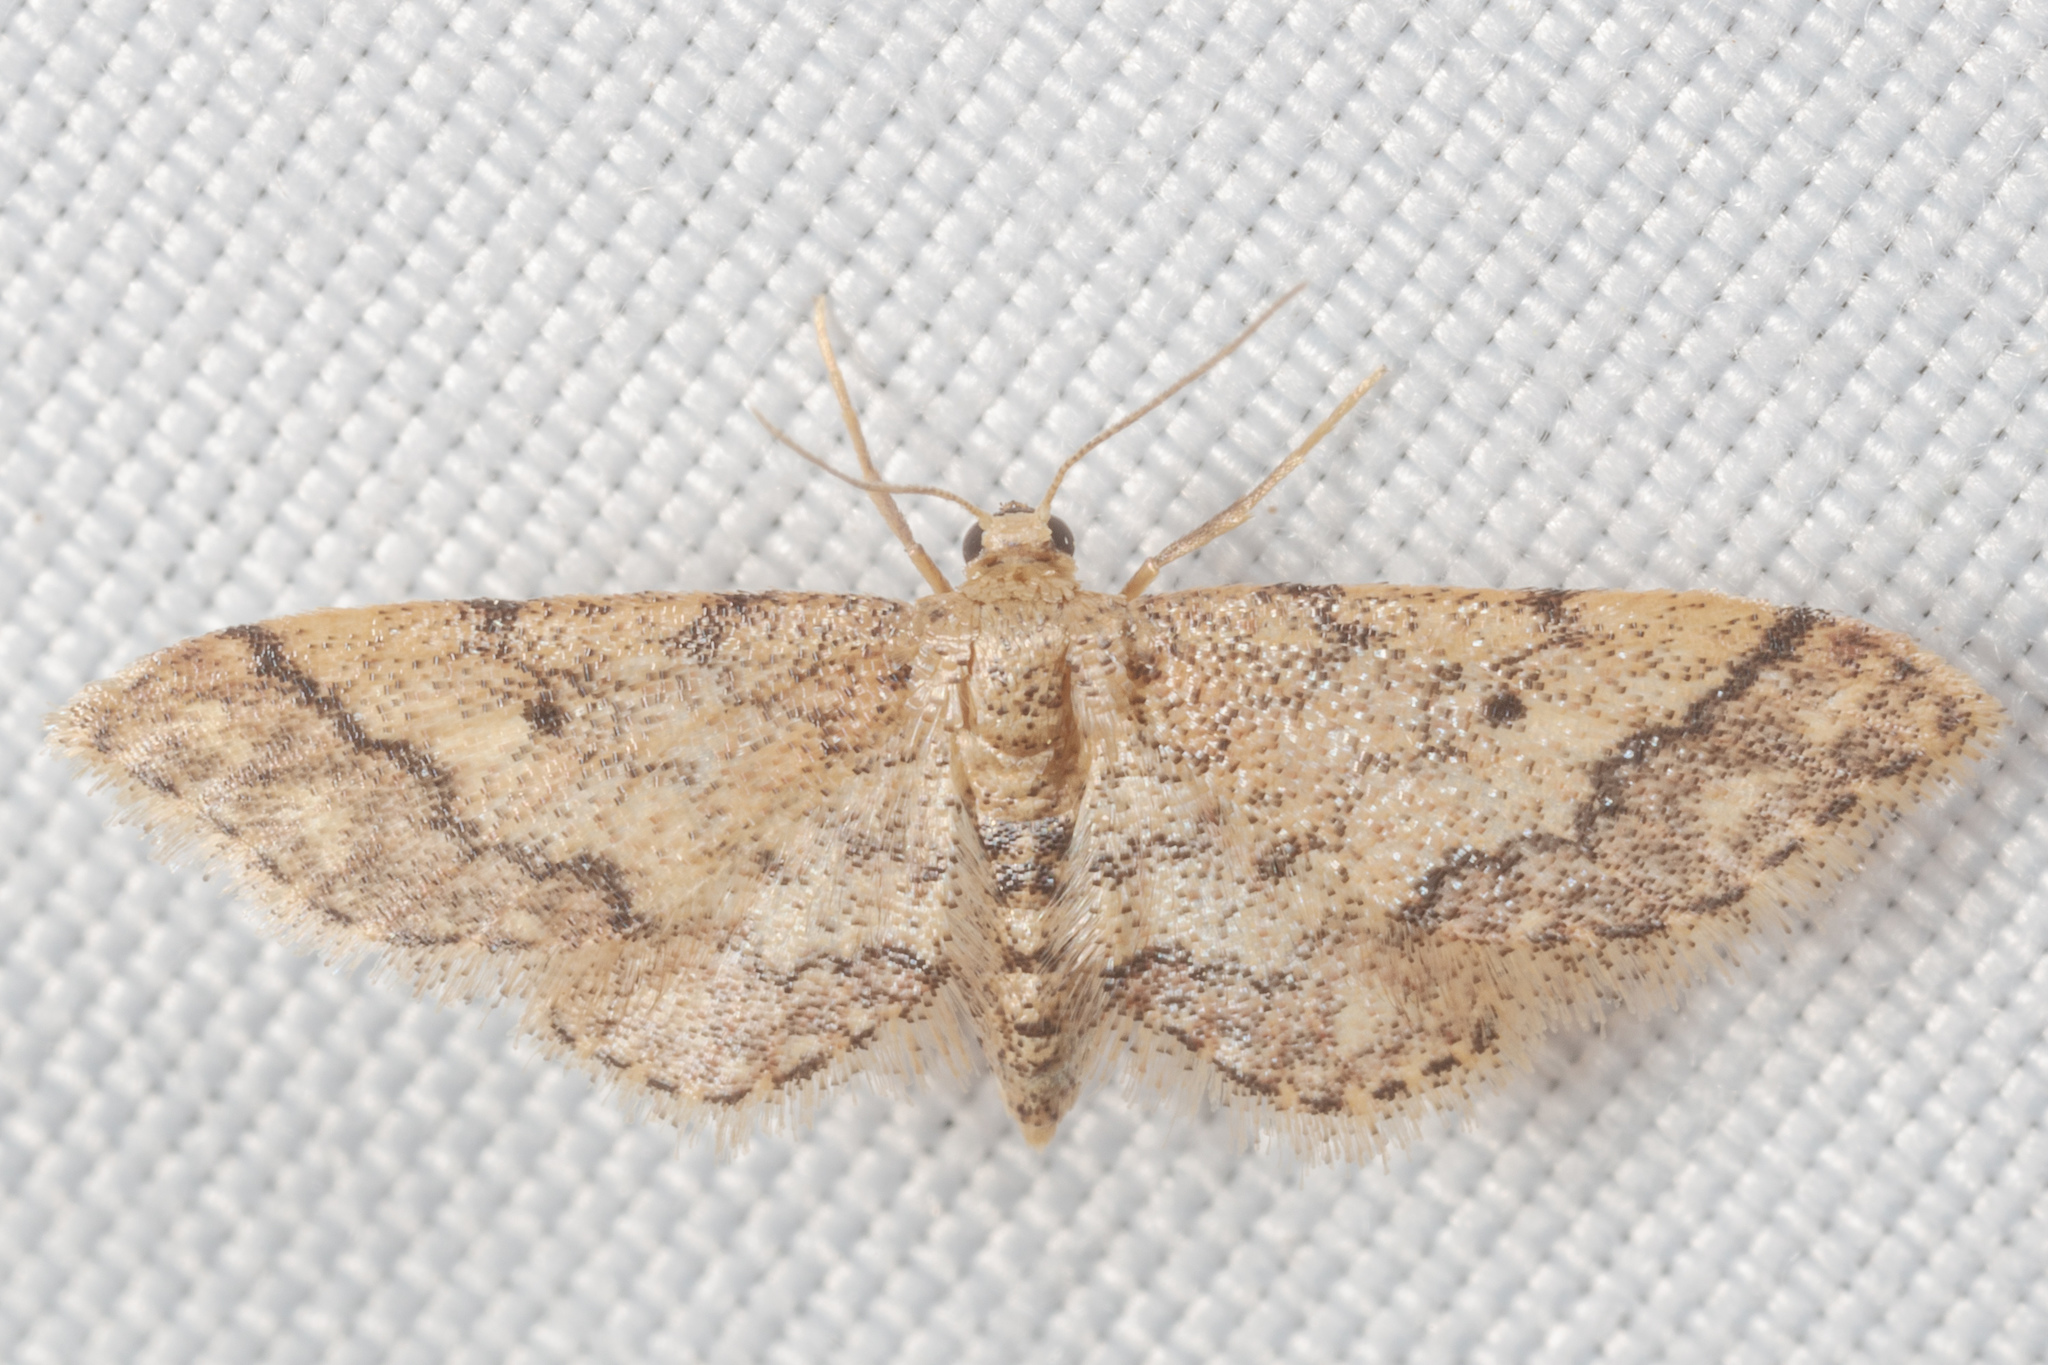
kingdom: Animalia
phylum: Arthropoda
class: Insecta
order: Lepidoptera
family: Geometridae
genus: Idaea
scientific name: Idaea celtima
